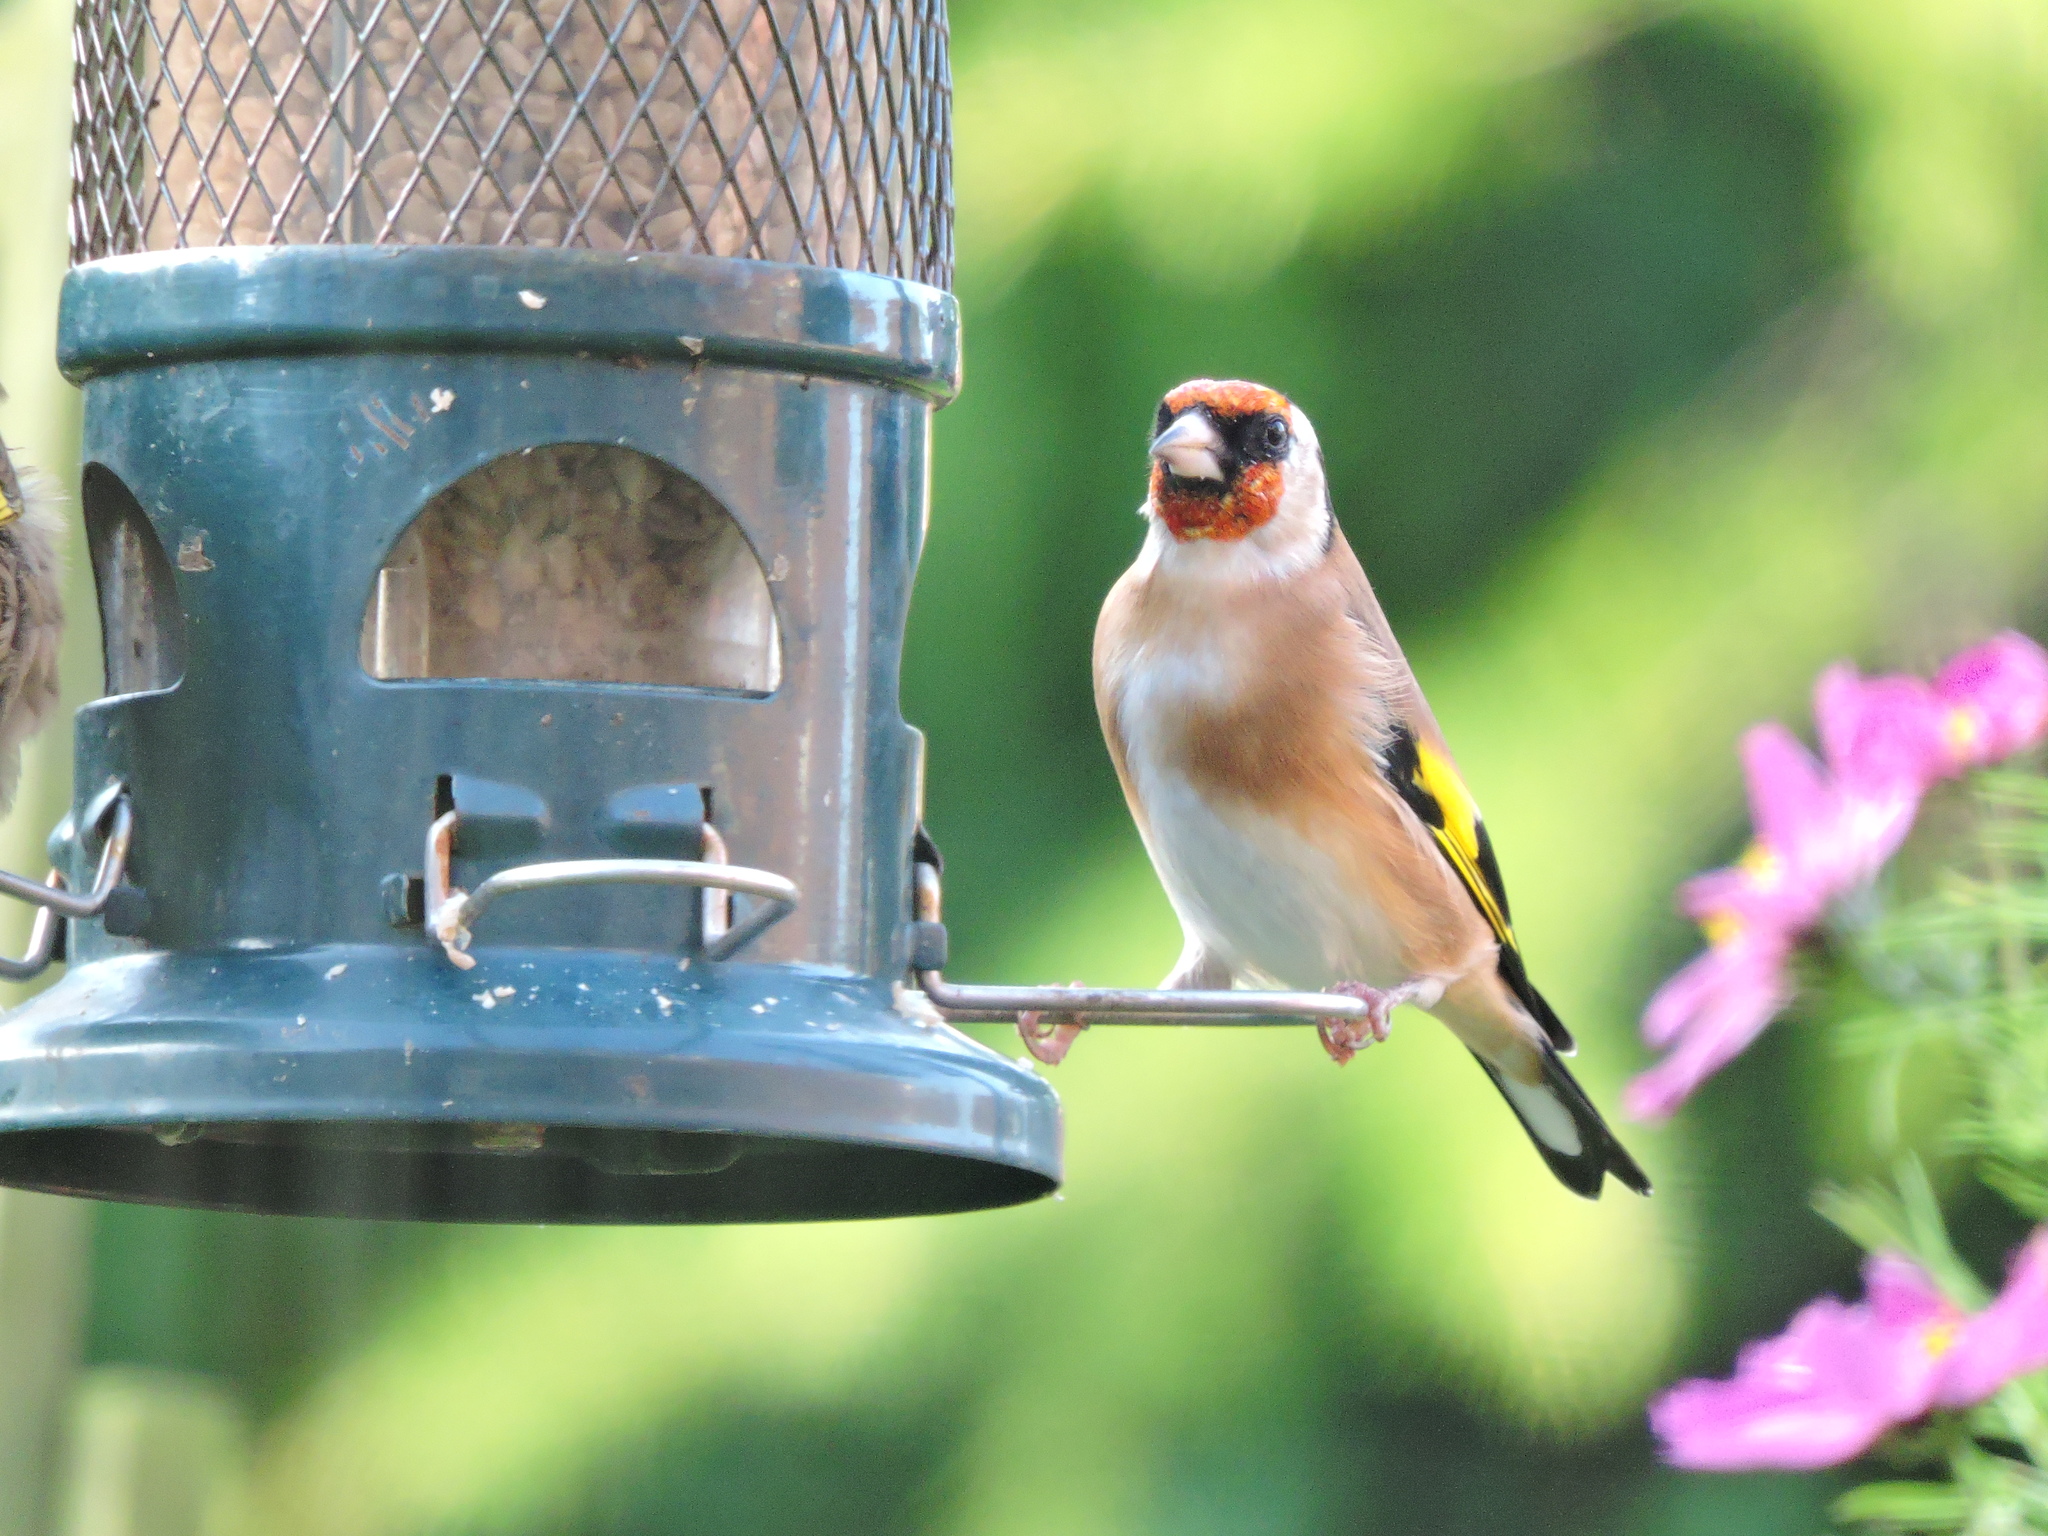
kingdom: Animalia
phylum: Chordata
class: Aves
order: Passeriformes
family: Fringillidae
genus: Carduelis
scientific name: Carduelis carduelis
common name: European goldfinch
